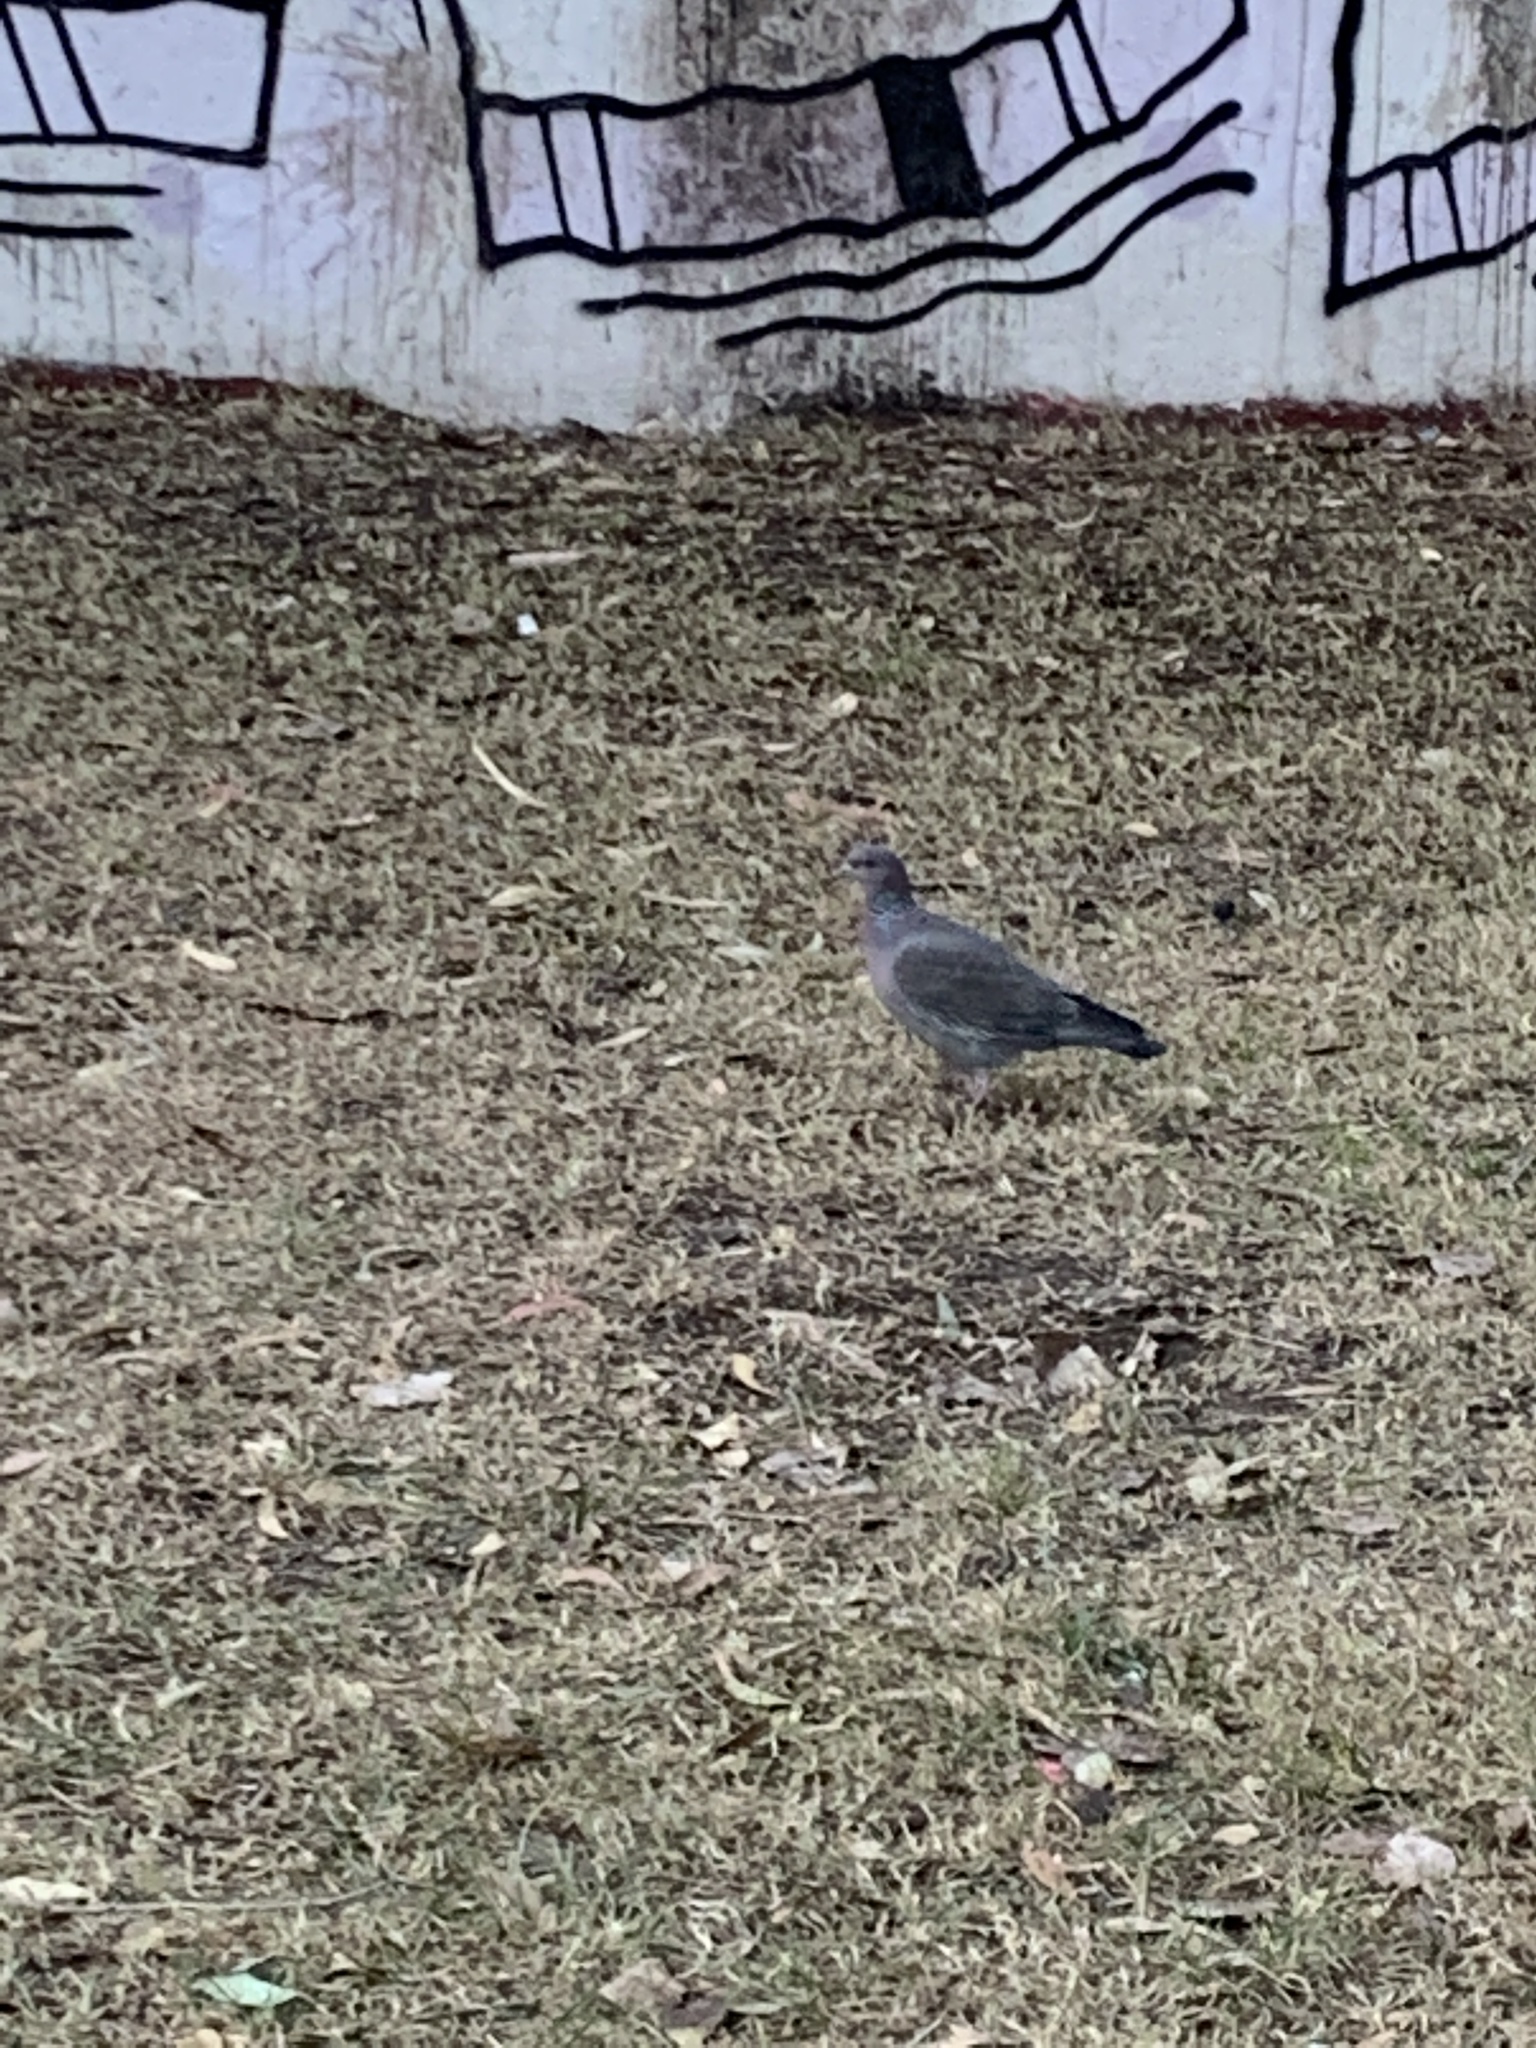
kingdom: Animalia
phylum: Chordata
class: Aves
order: Columbiformes
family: Columbidae
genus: Patagioenas
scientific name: Patagioenas picazuro
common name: Picazuro pigeon
